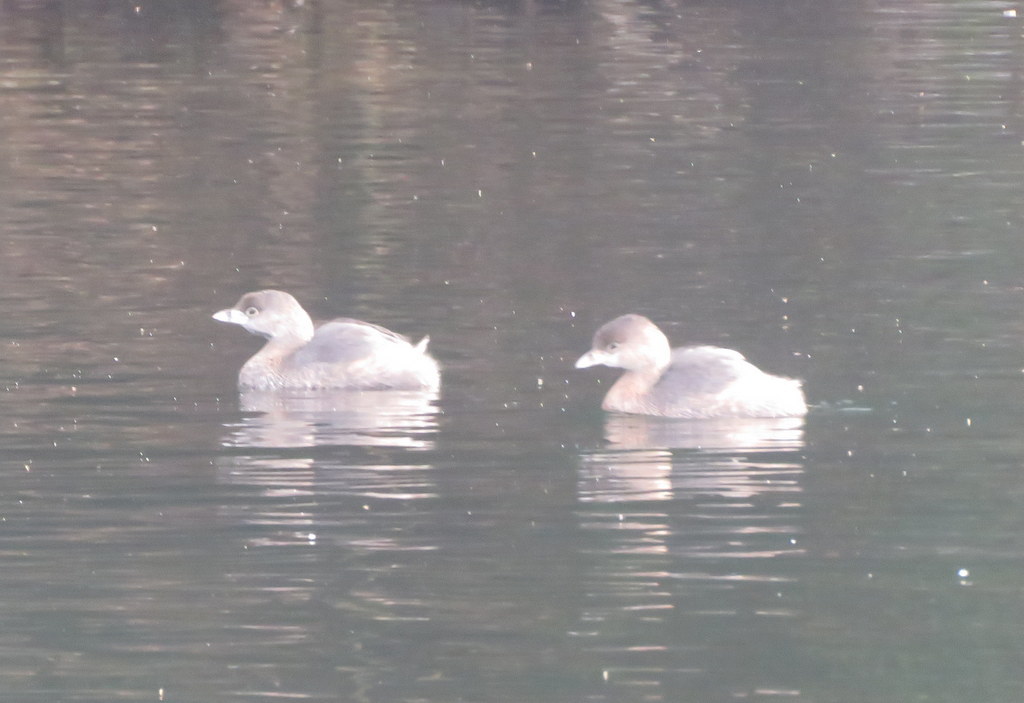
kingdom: Animalia
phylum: Chordata
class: Aves
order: Podicipediformes
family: Podicipedidae
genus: Podilymbus
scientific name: Podilymbus podiceps
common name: Pied-billed grebe
